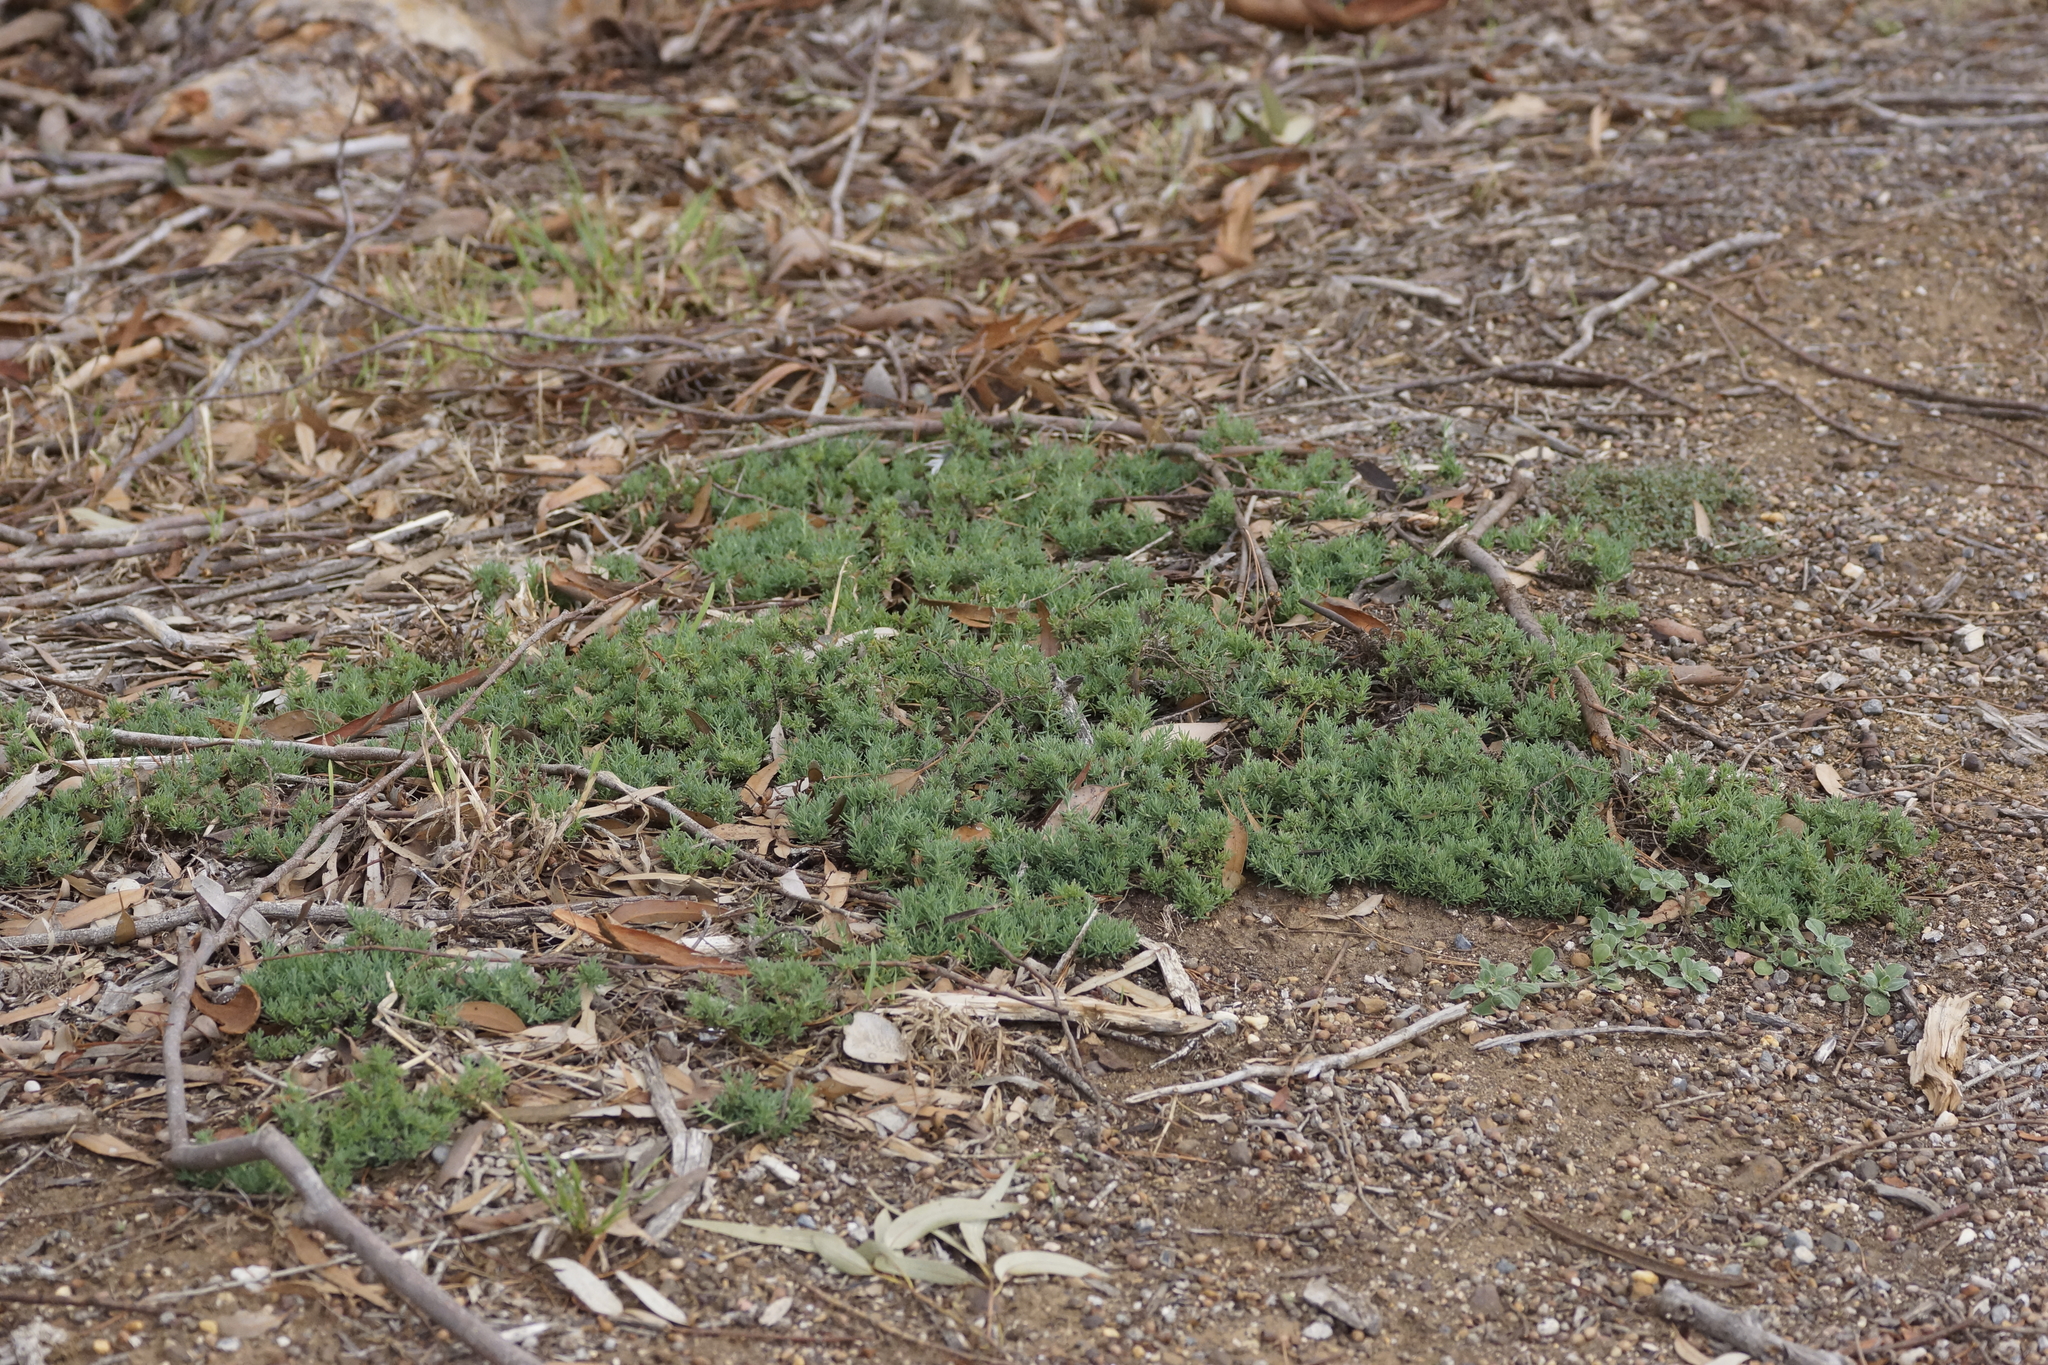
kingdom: Plantae
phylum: Tracheophyta
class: Magnoliopsida
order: Caryophyllales
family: Amaranthaceae
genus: Enchylaena
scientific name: Enchylaena tomentosa
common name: Ruby saltbush
